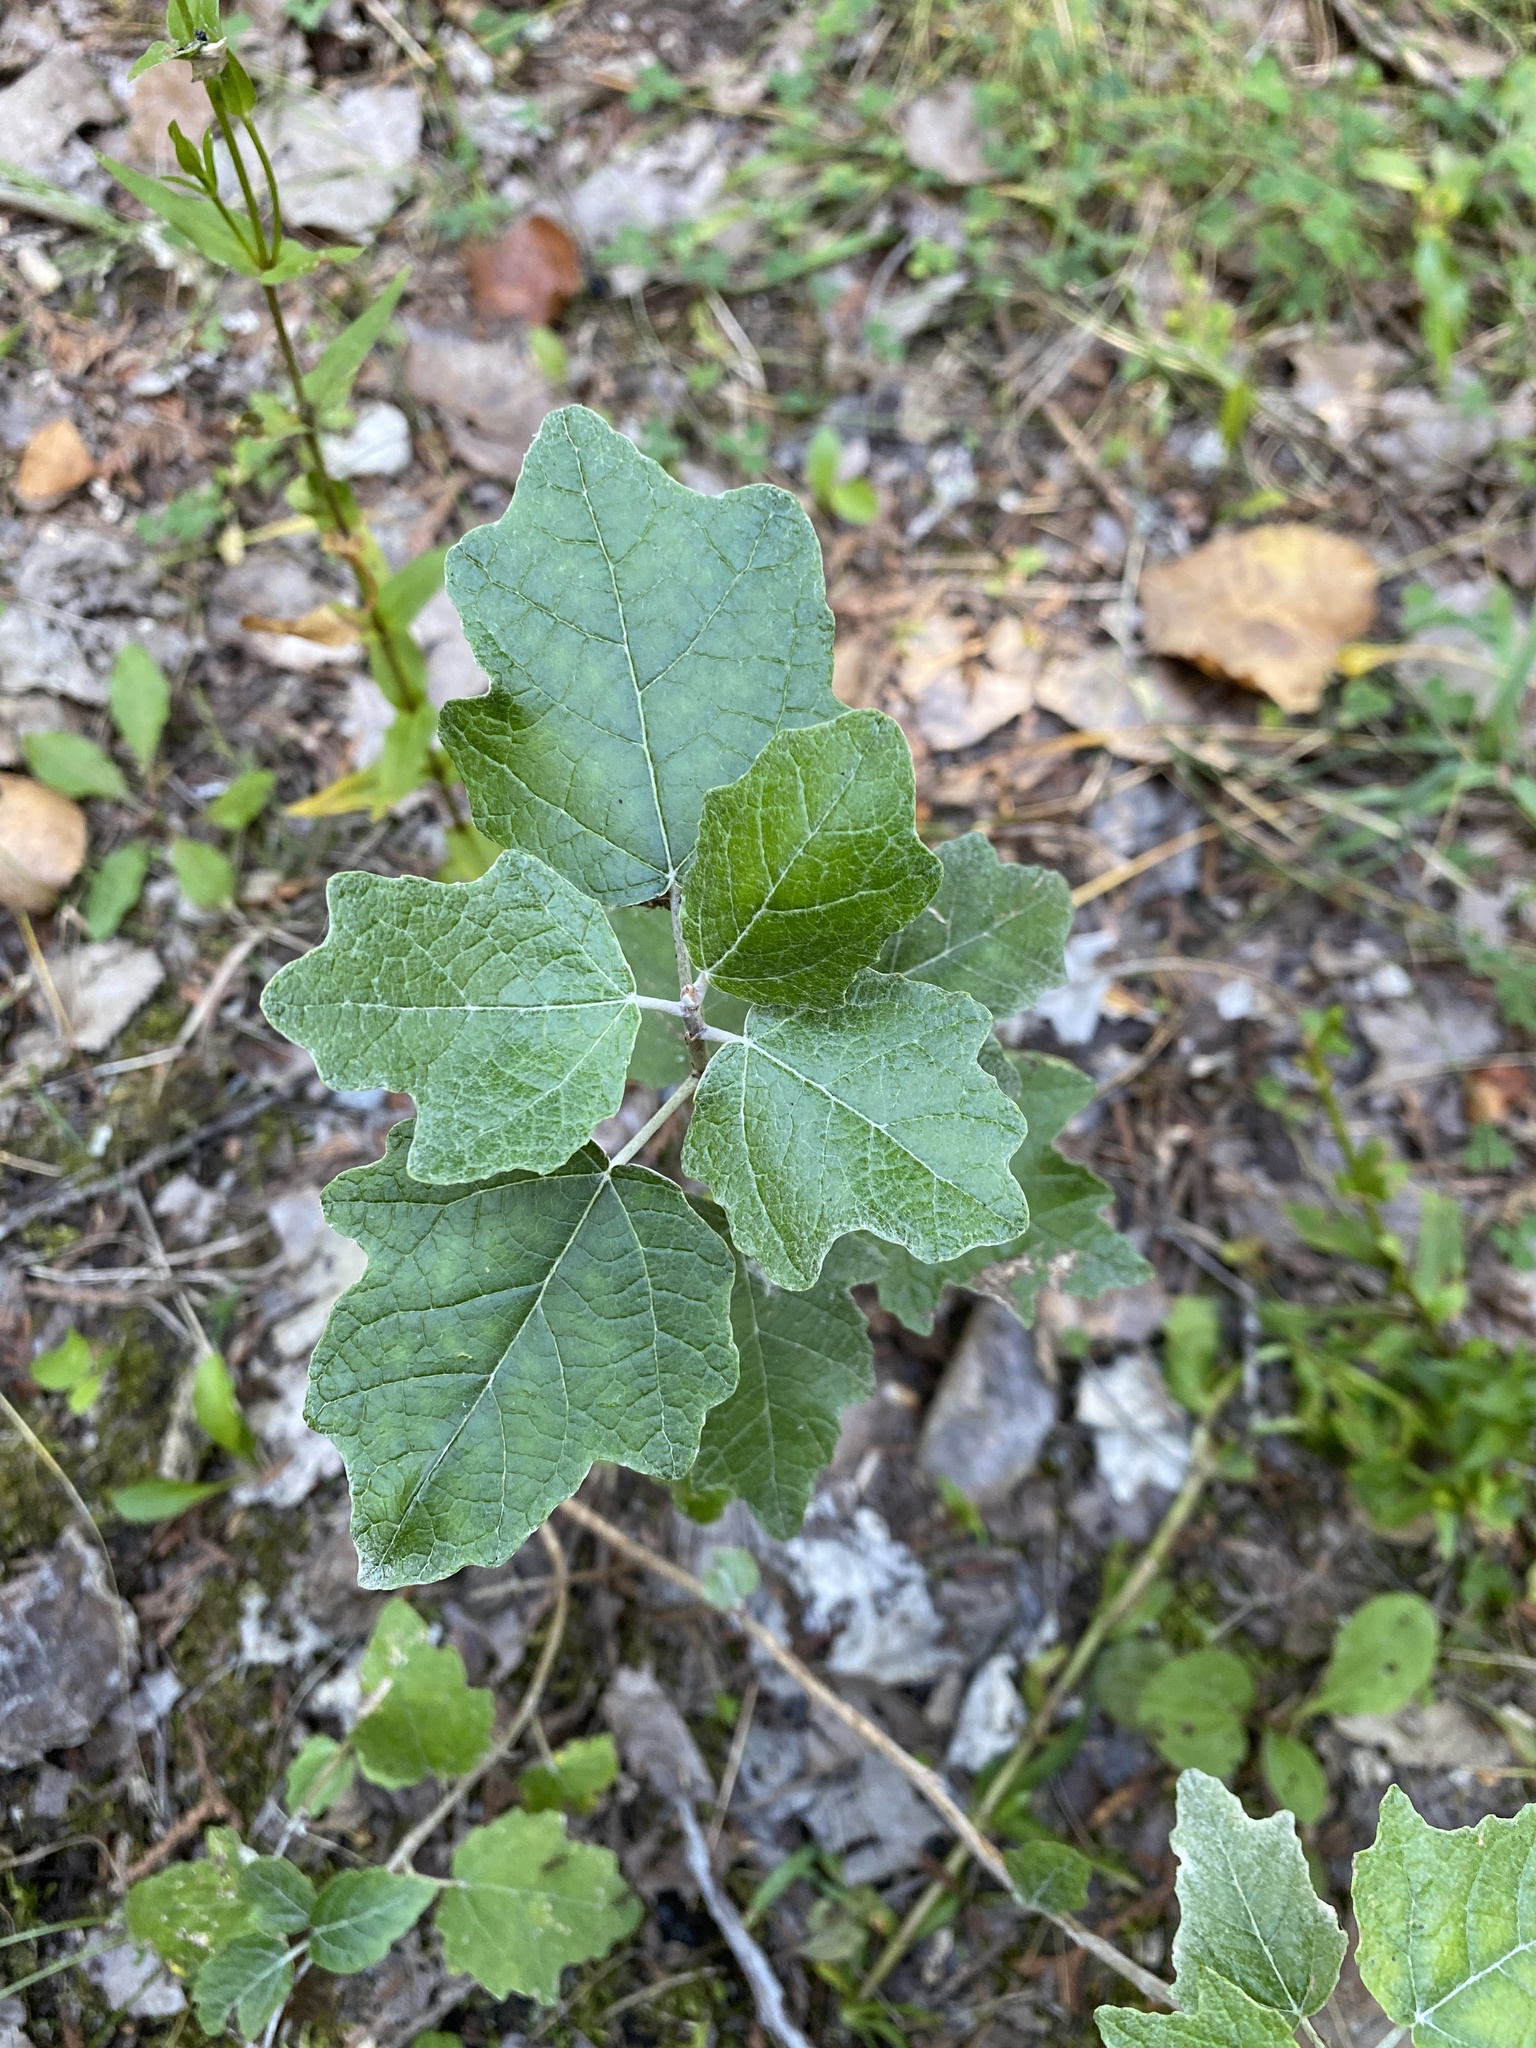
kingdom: Plantae
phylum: Tracheophyta
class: Magnoliopsida
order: Malpighiales
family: Salicaceae
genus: Populus
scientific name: Populus alba
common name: White poplar
